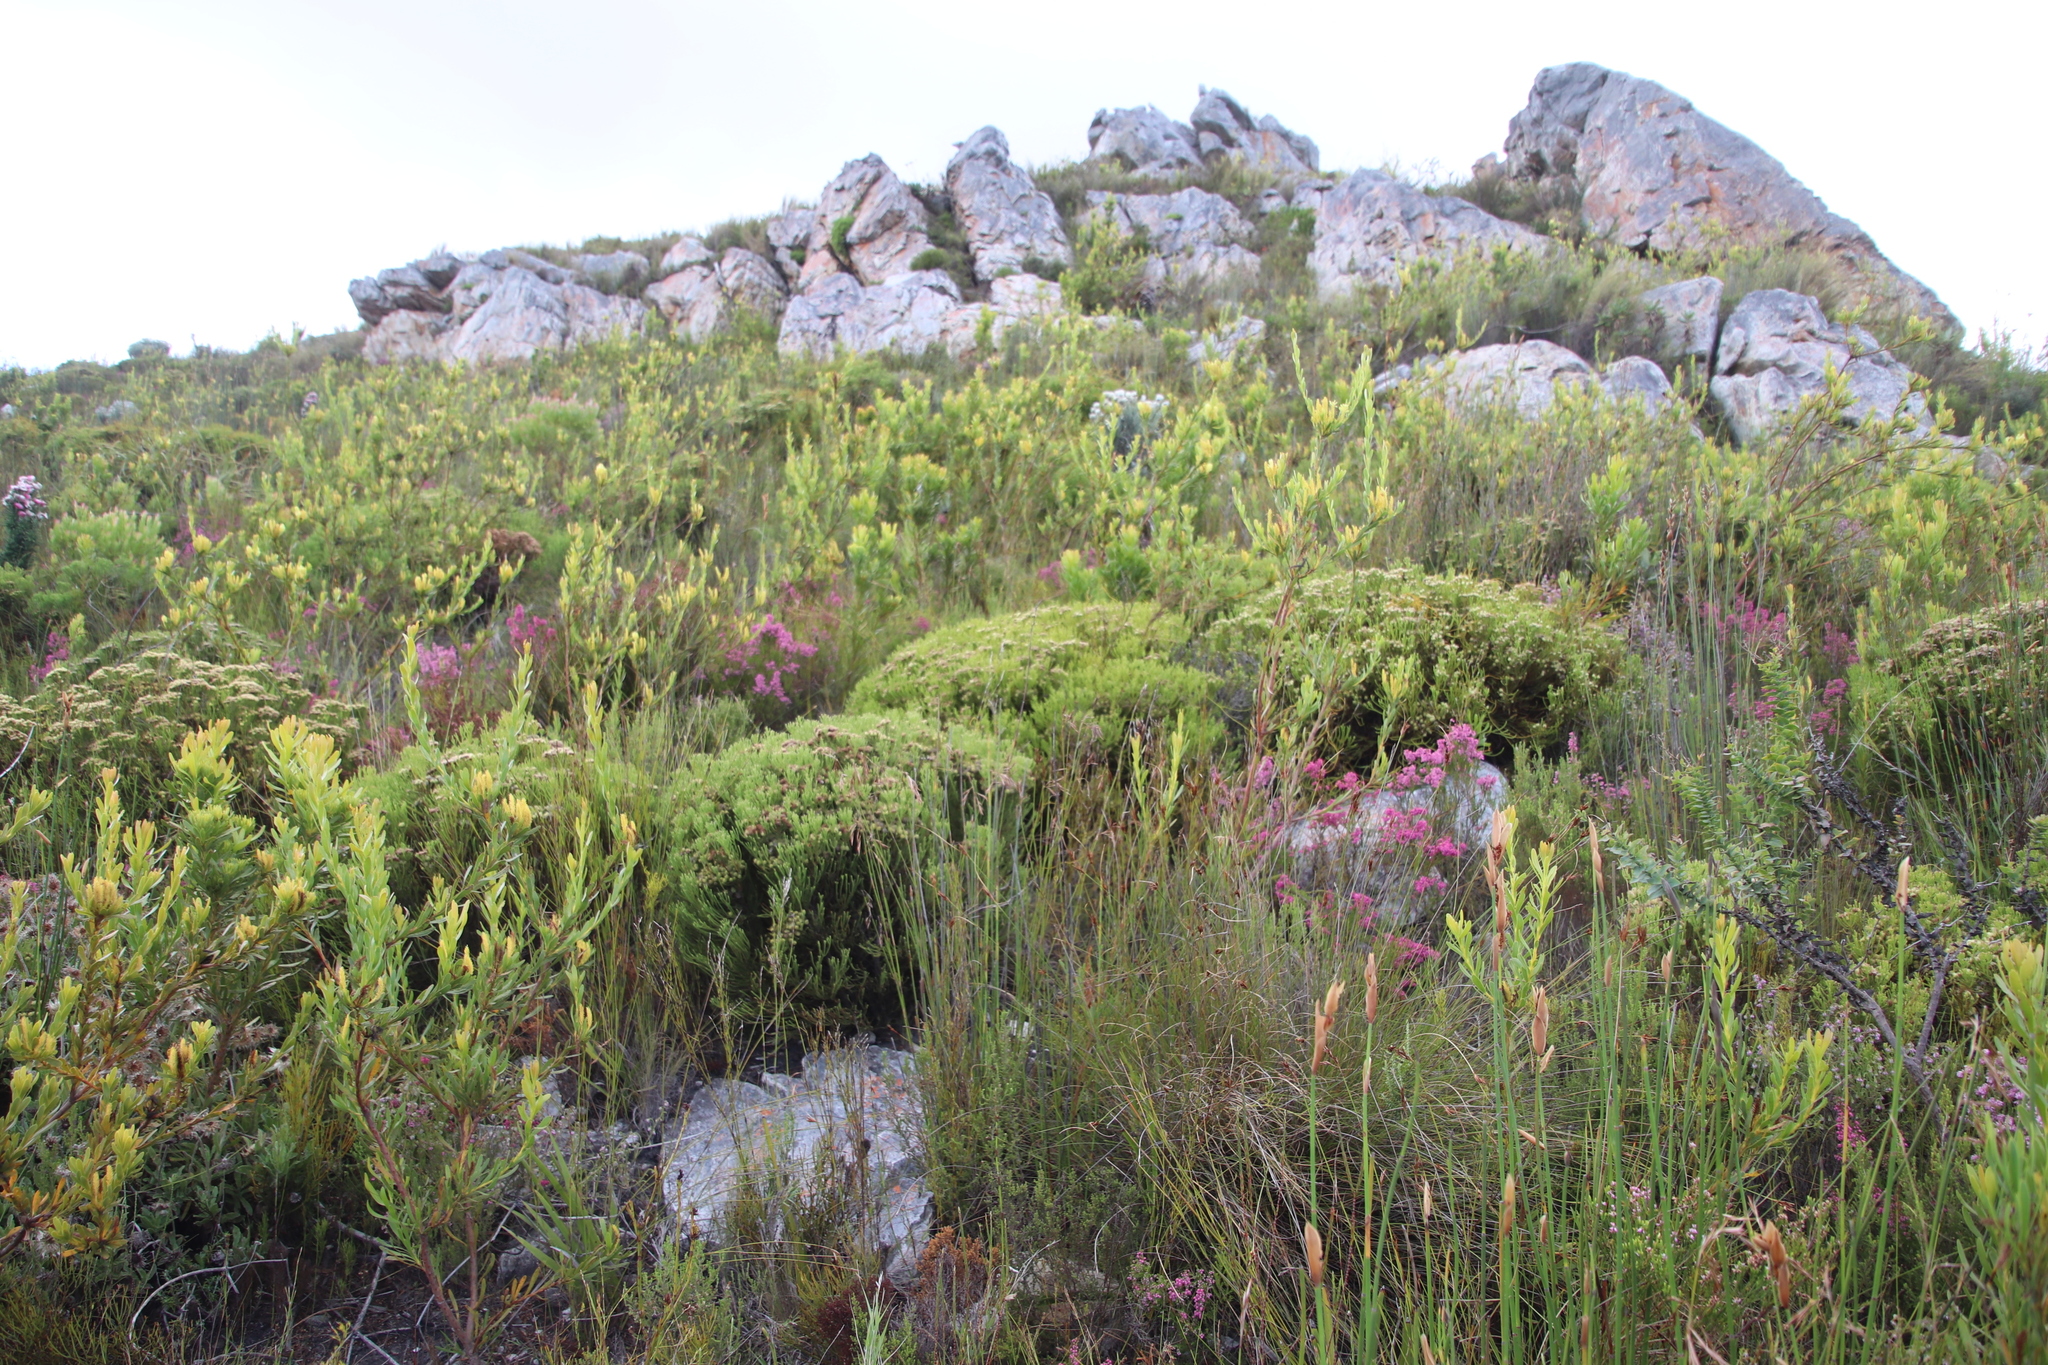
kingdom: Plantae
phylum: Tracheophyta
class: Magnoliopsida
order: Bruniales
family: Bruniaceae
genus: Brunia
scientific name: Brunia paleacea
